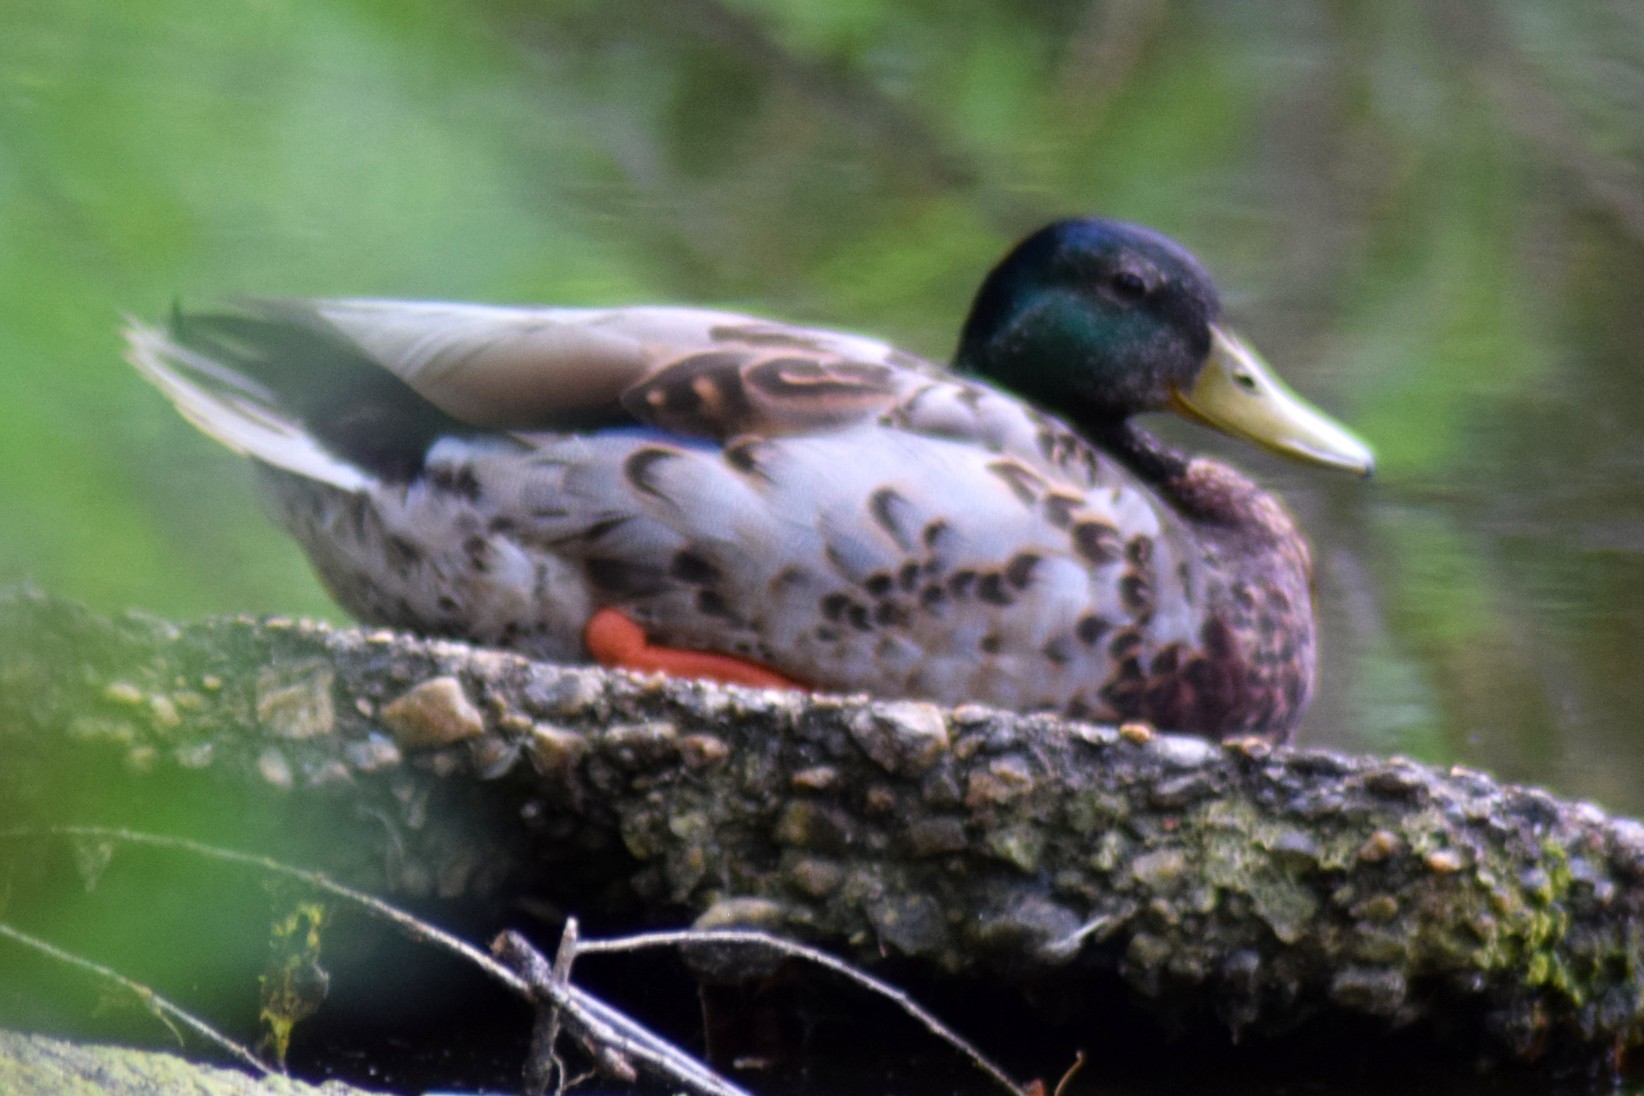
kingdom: Animalia
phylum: Chordata
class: Aves
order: Anseriformes
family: Anatidae
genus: Anas
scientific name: Anas platyrhynchos
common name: Mallard
